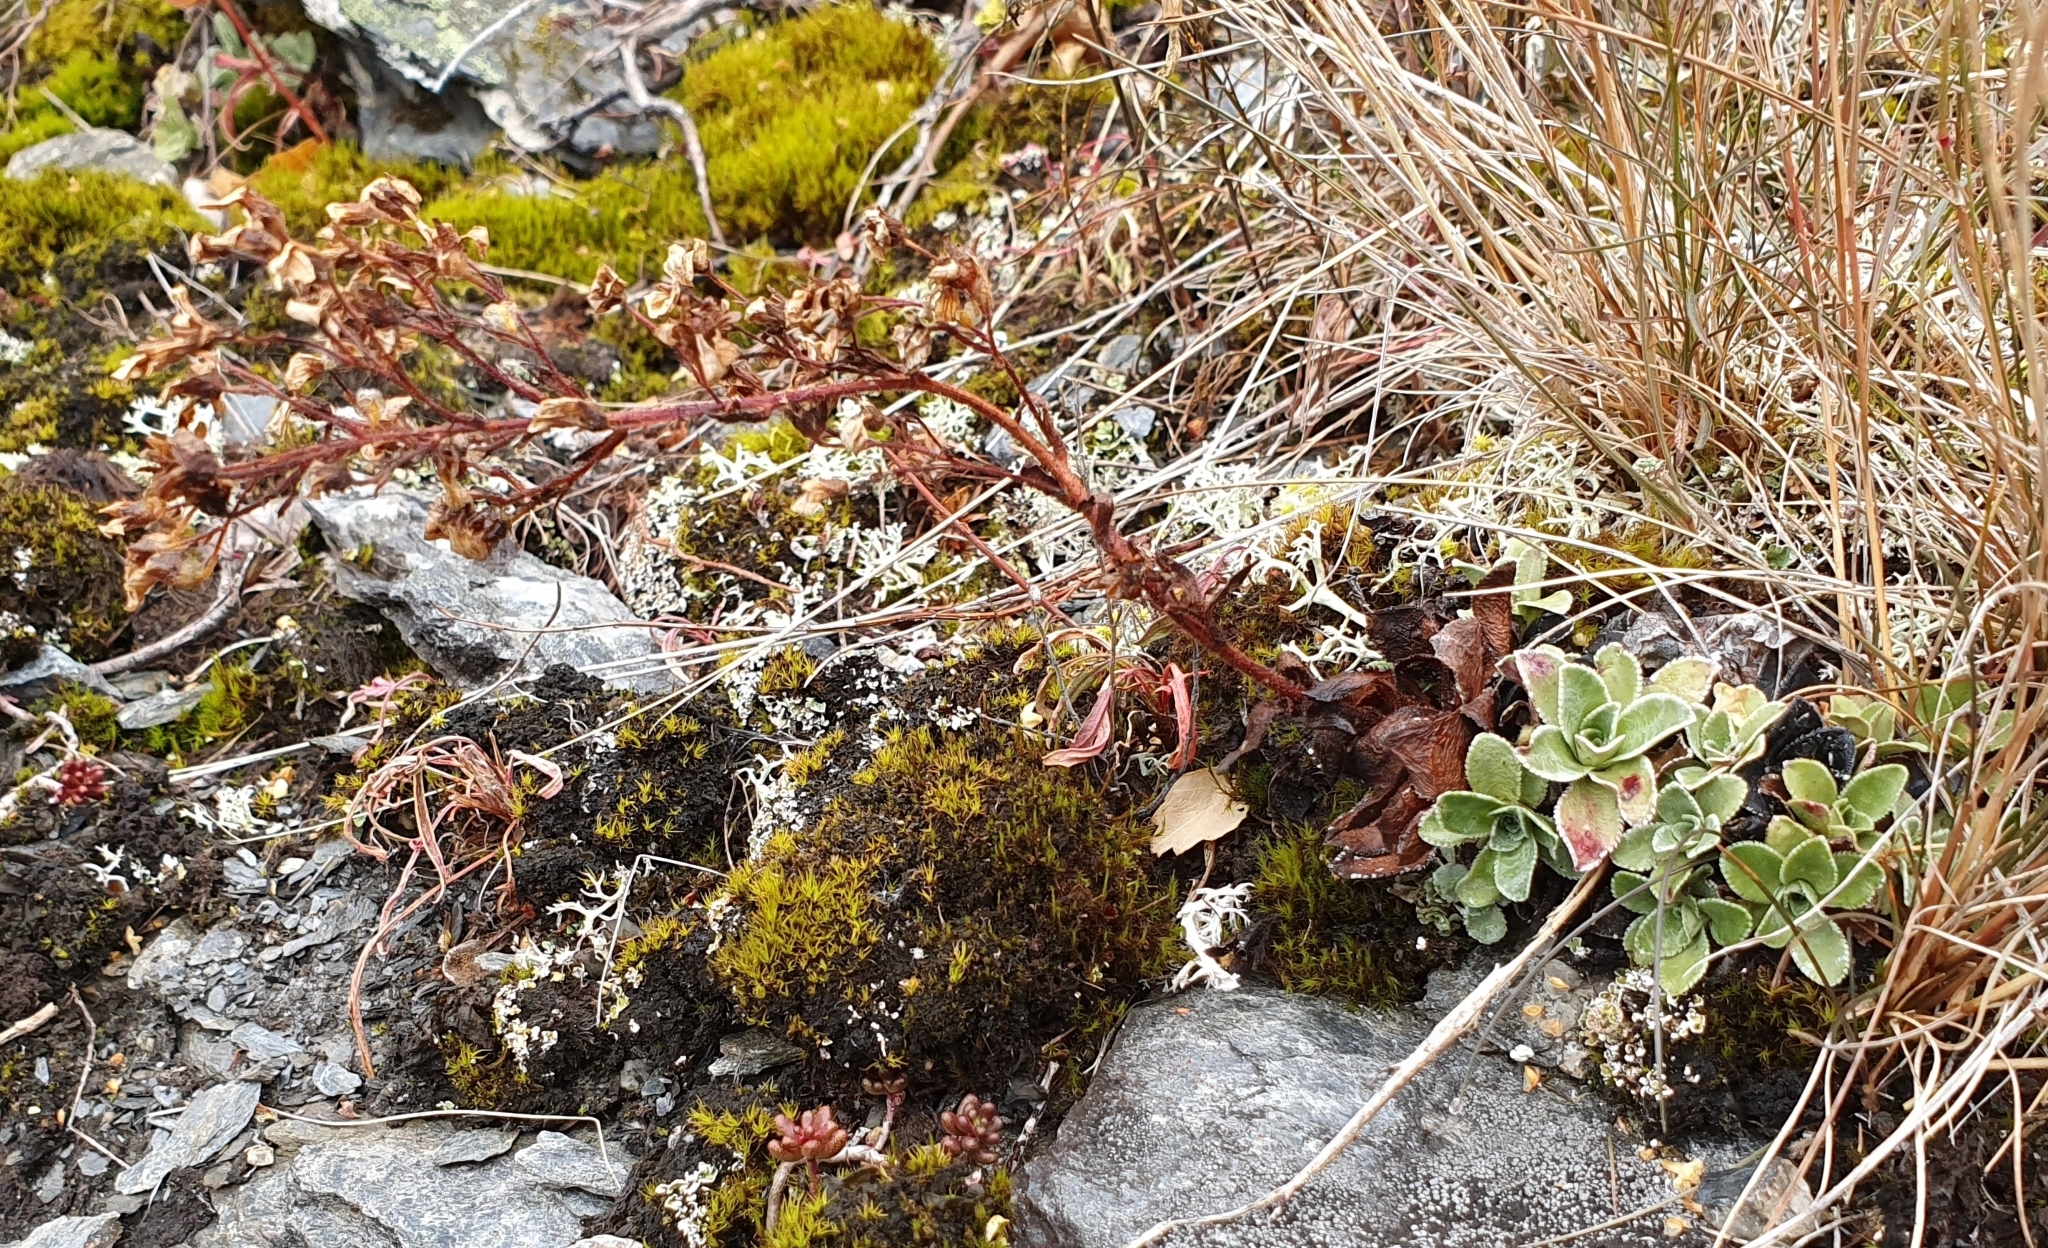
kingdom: Plantae
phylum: Tracheophyta
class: Magnoliopsida
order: Saxifragales
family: Saxifragaceae
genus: Saxifraga
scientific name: Saxifraga cotyledon
